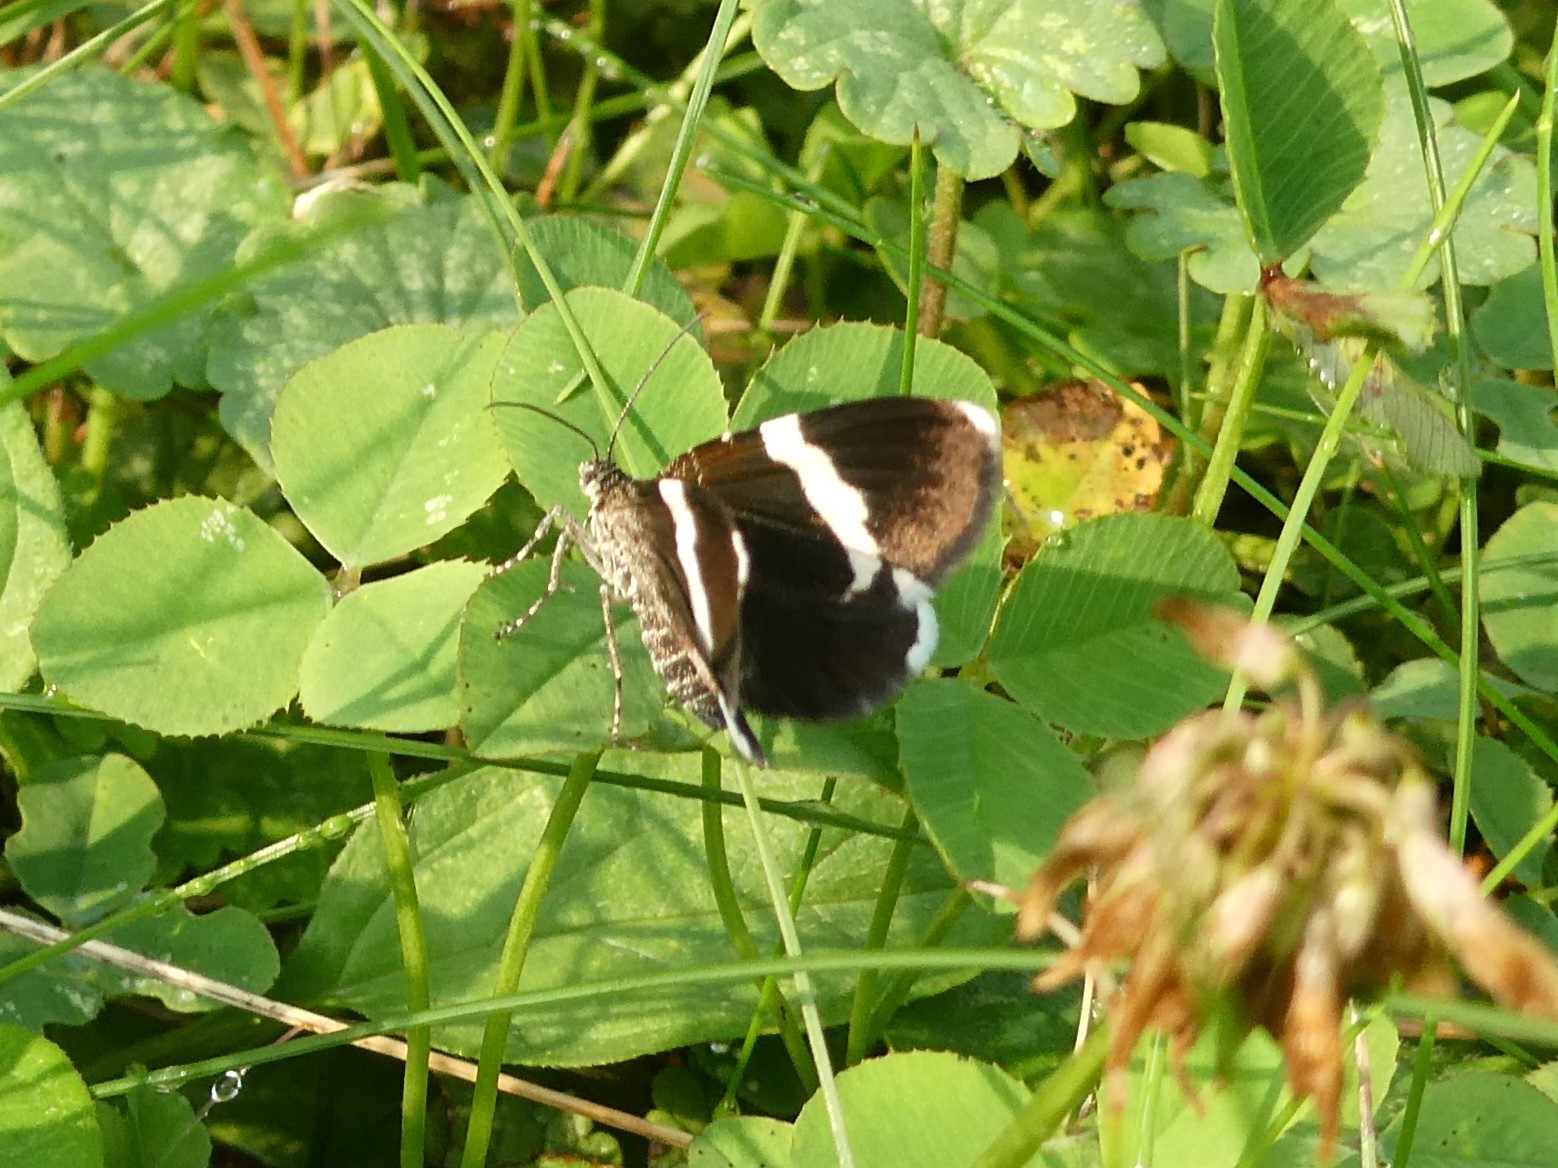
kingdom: Animalia
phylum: Arthropoda
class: Insecta
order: Lepidoptera
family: Geometridae
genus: Trichodezia
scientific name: Trichodezia albovittata
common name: White striped black
